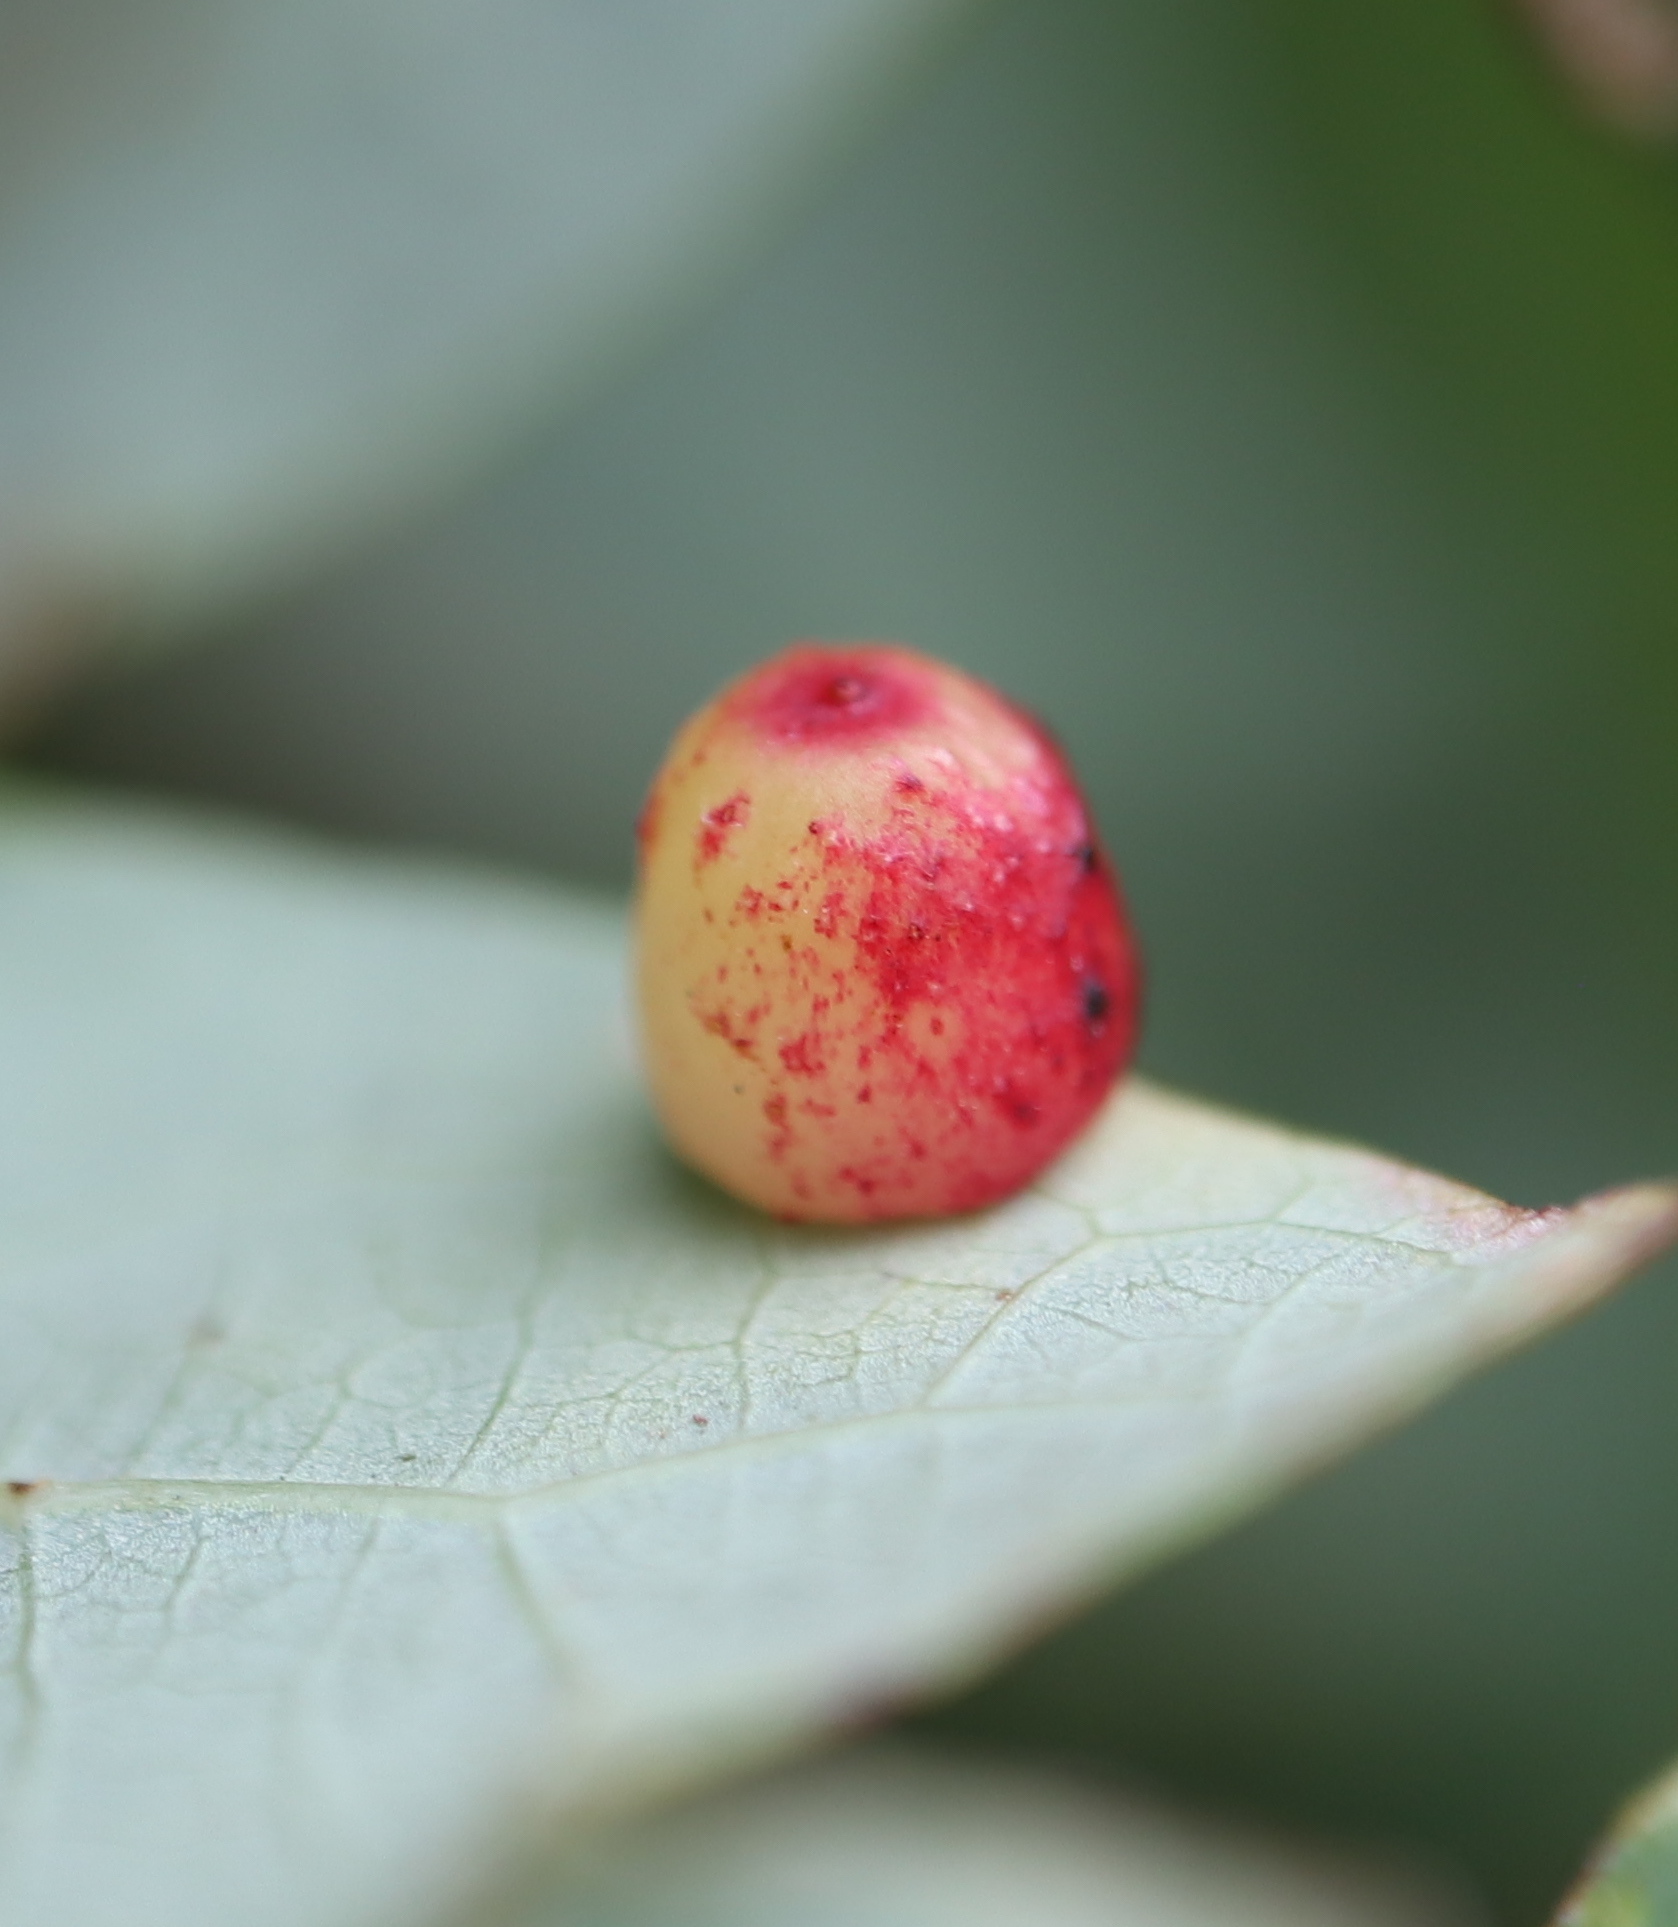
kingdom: Animalia
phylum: Arthropoda
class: Insecta
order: Hymenoptera
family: Cynipidae
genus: Andricus
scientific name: Andricus
